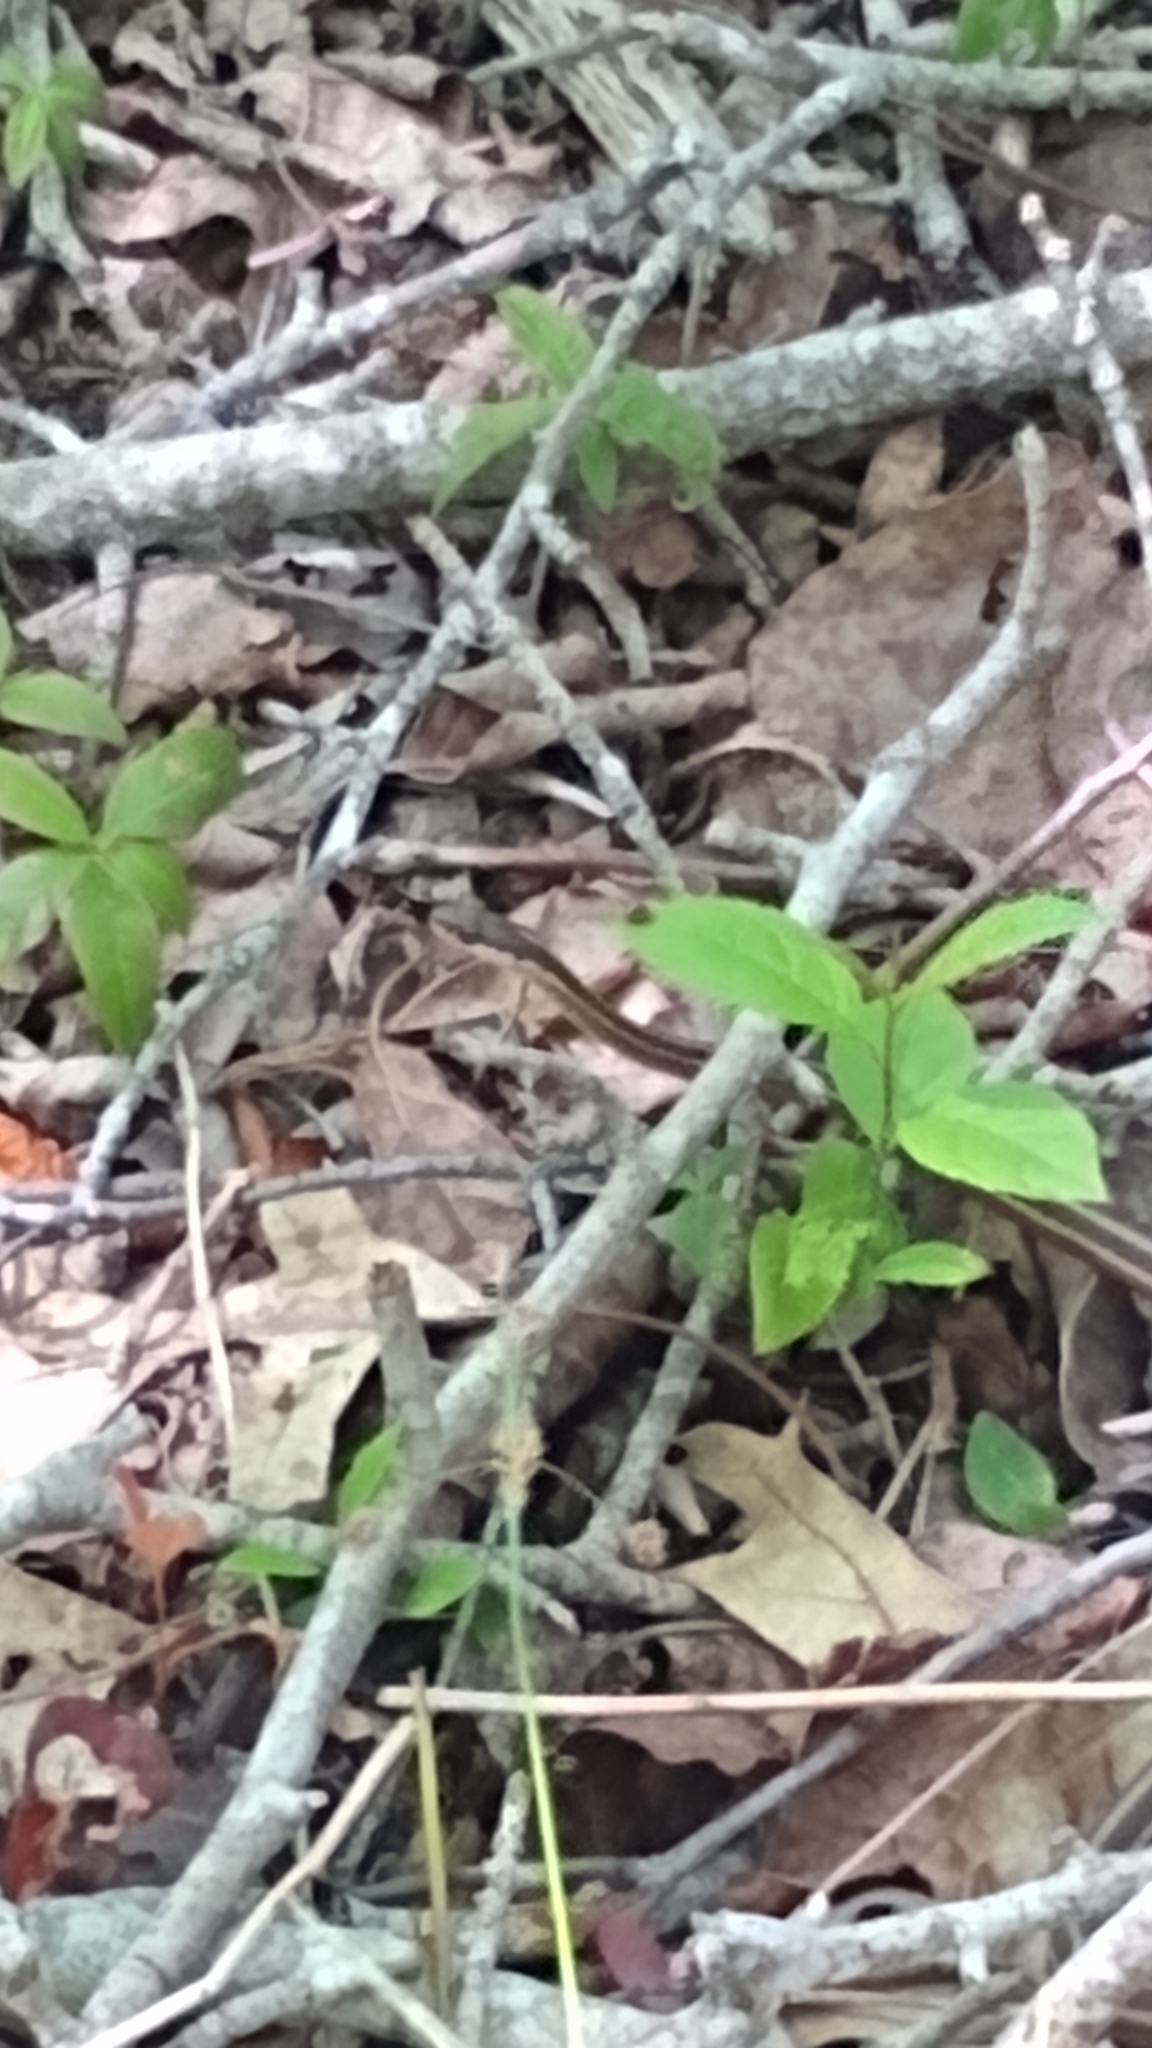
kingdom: Animalia
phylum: Chordata
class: Squamata
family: Colubridae
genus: Thamnophis
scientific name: Thamnophis saurita
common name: Eastern ribbonsnake
